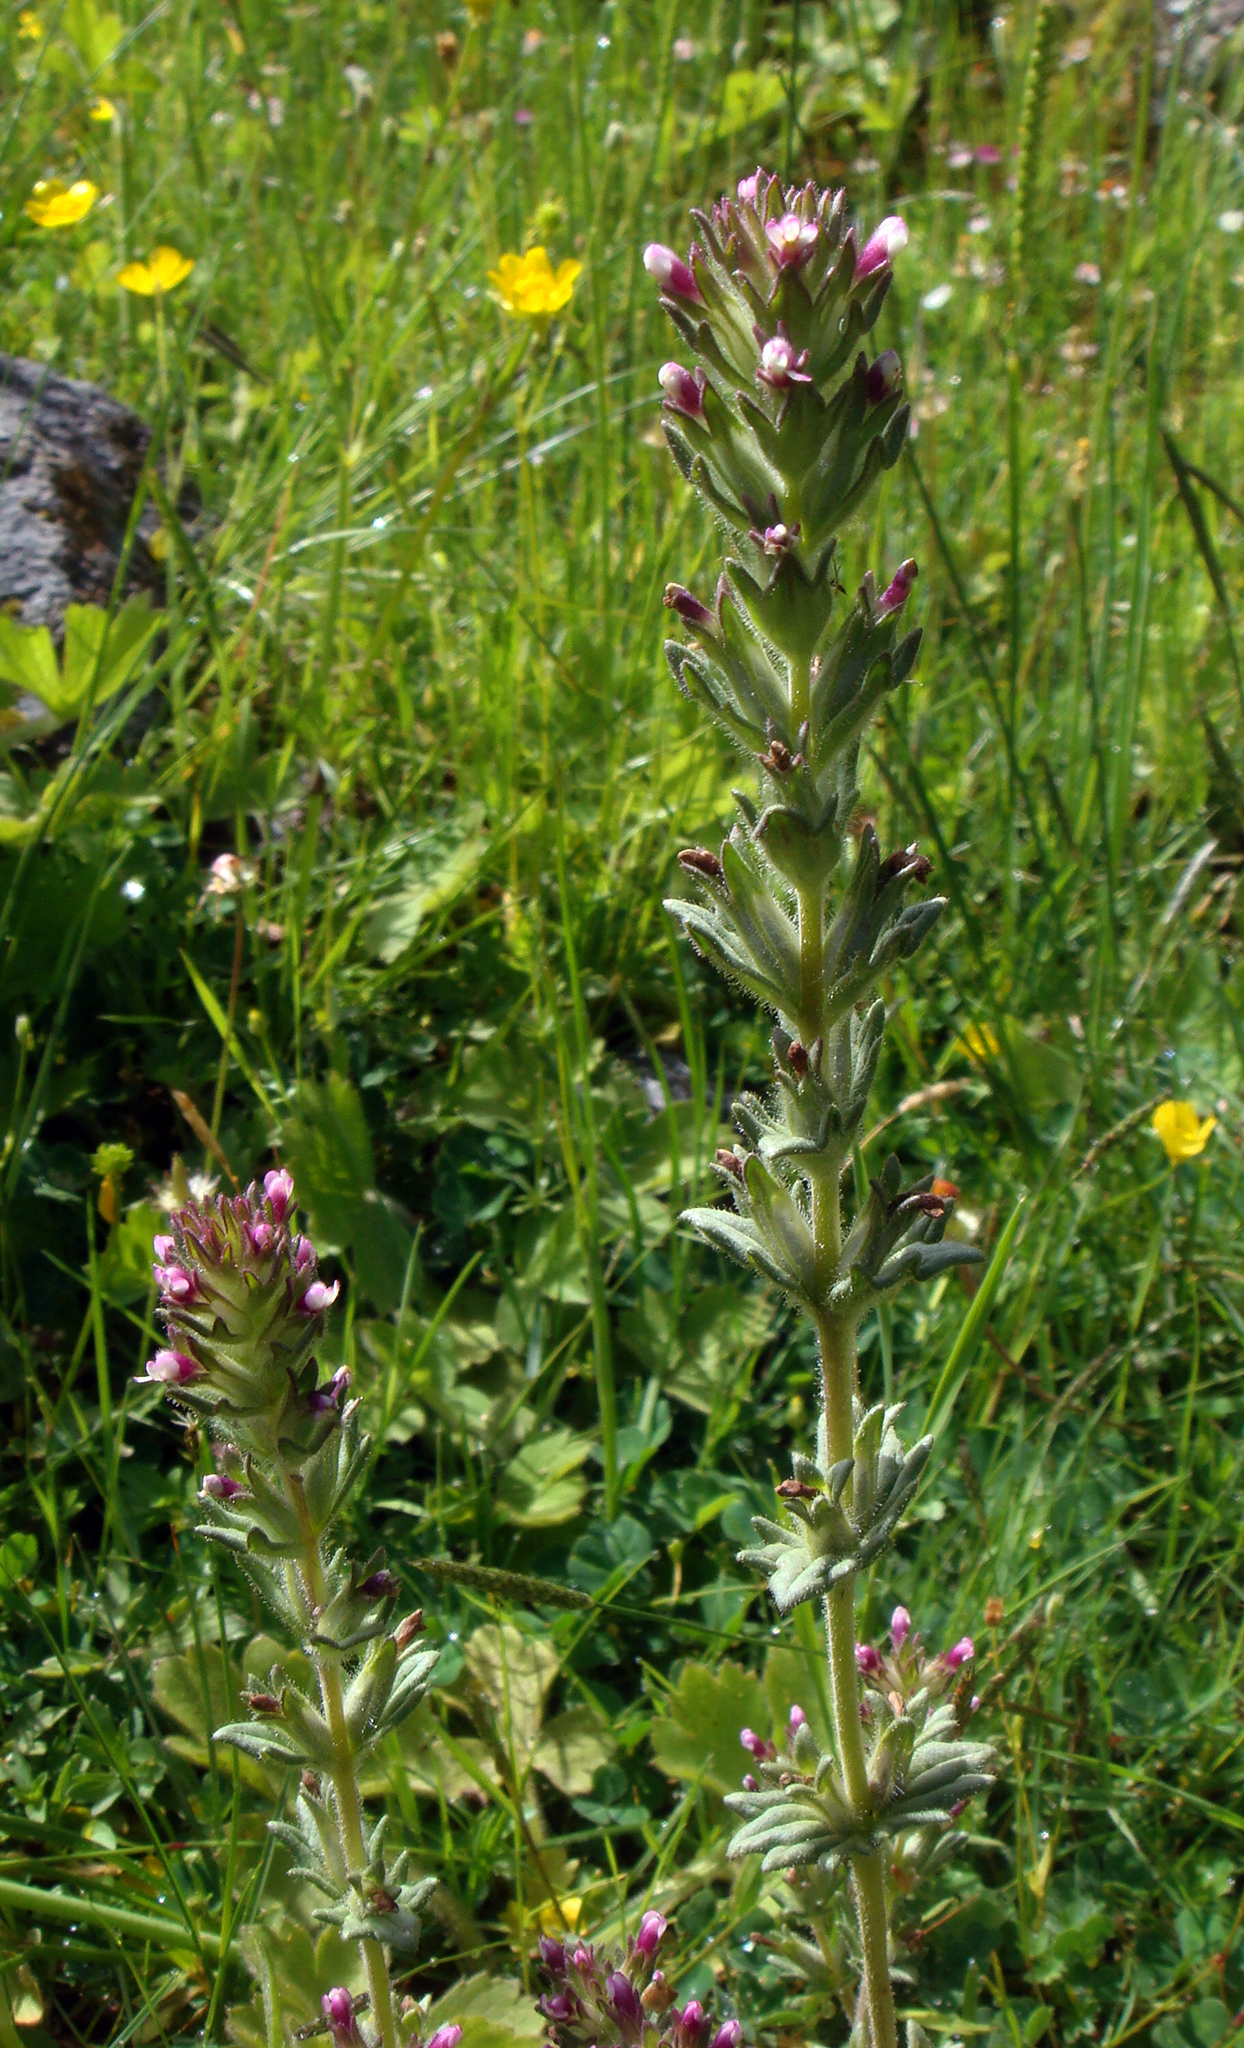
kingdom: Plantae
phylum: Tracheophyta
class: Magnoliopsida
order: Lamiales
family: Orobanchaceae
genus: Parentucellia
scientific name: Parentucellia latifolia
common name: Broadleaf glandweed
